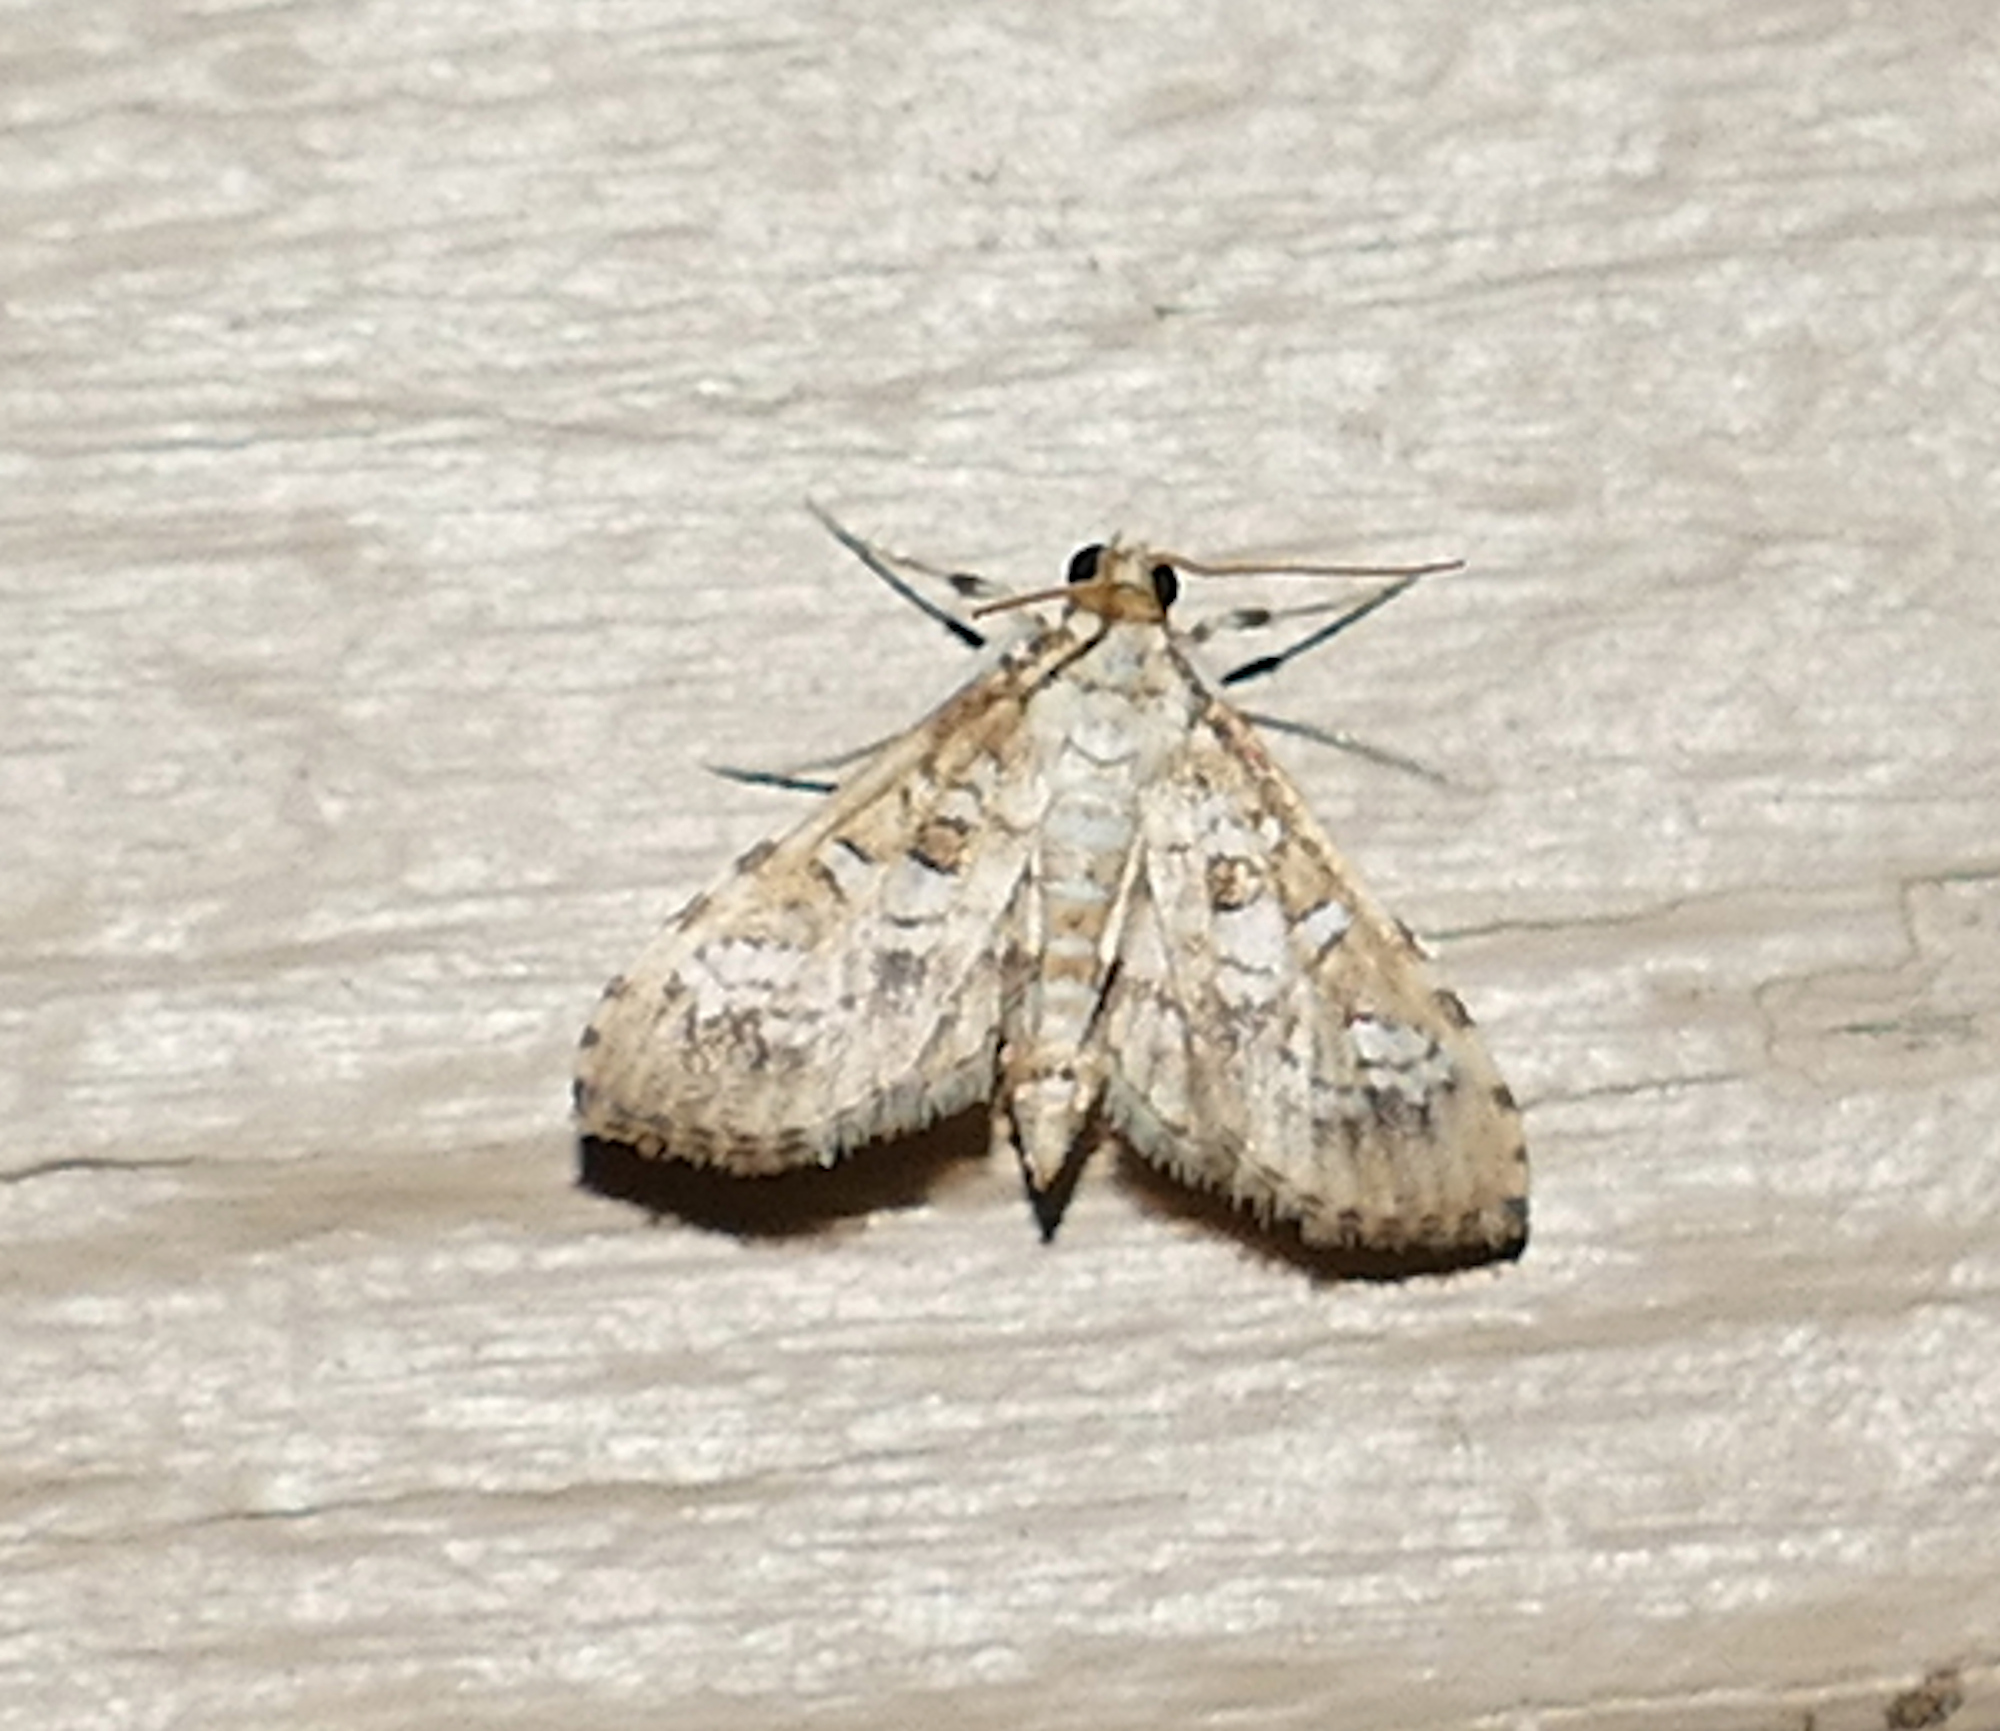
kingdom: Animalia
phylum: Arthropoda
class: Insecta
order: Lepidoptera
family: Crambidae
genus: Samea
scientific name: Samea multiplicalis
